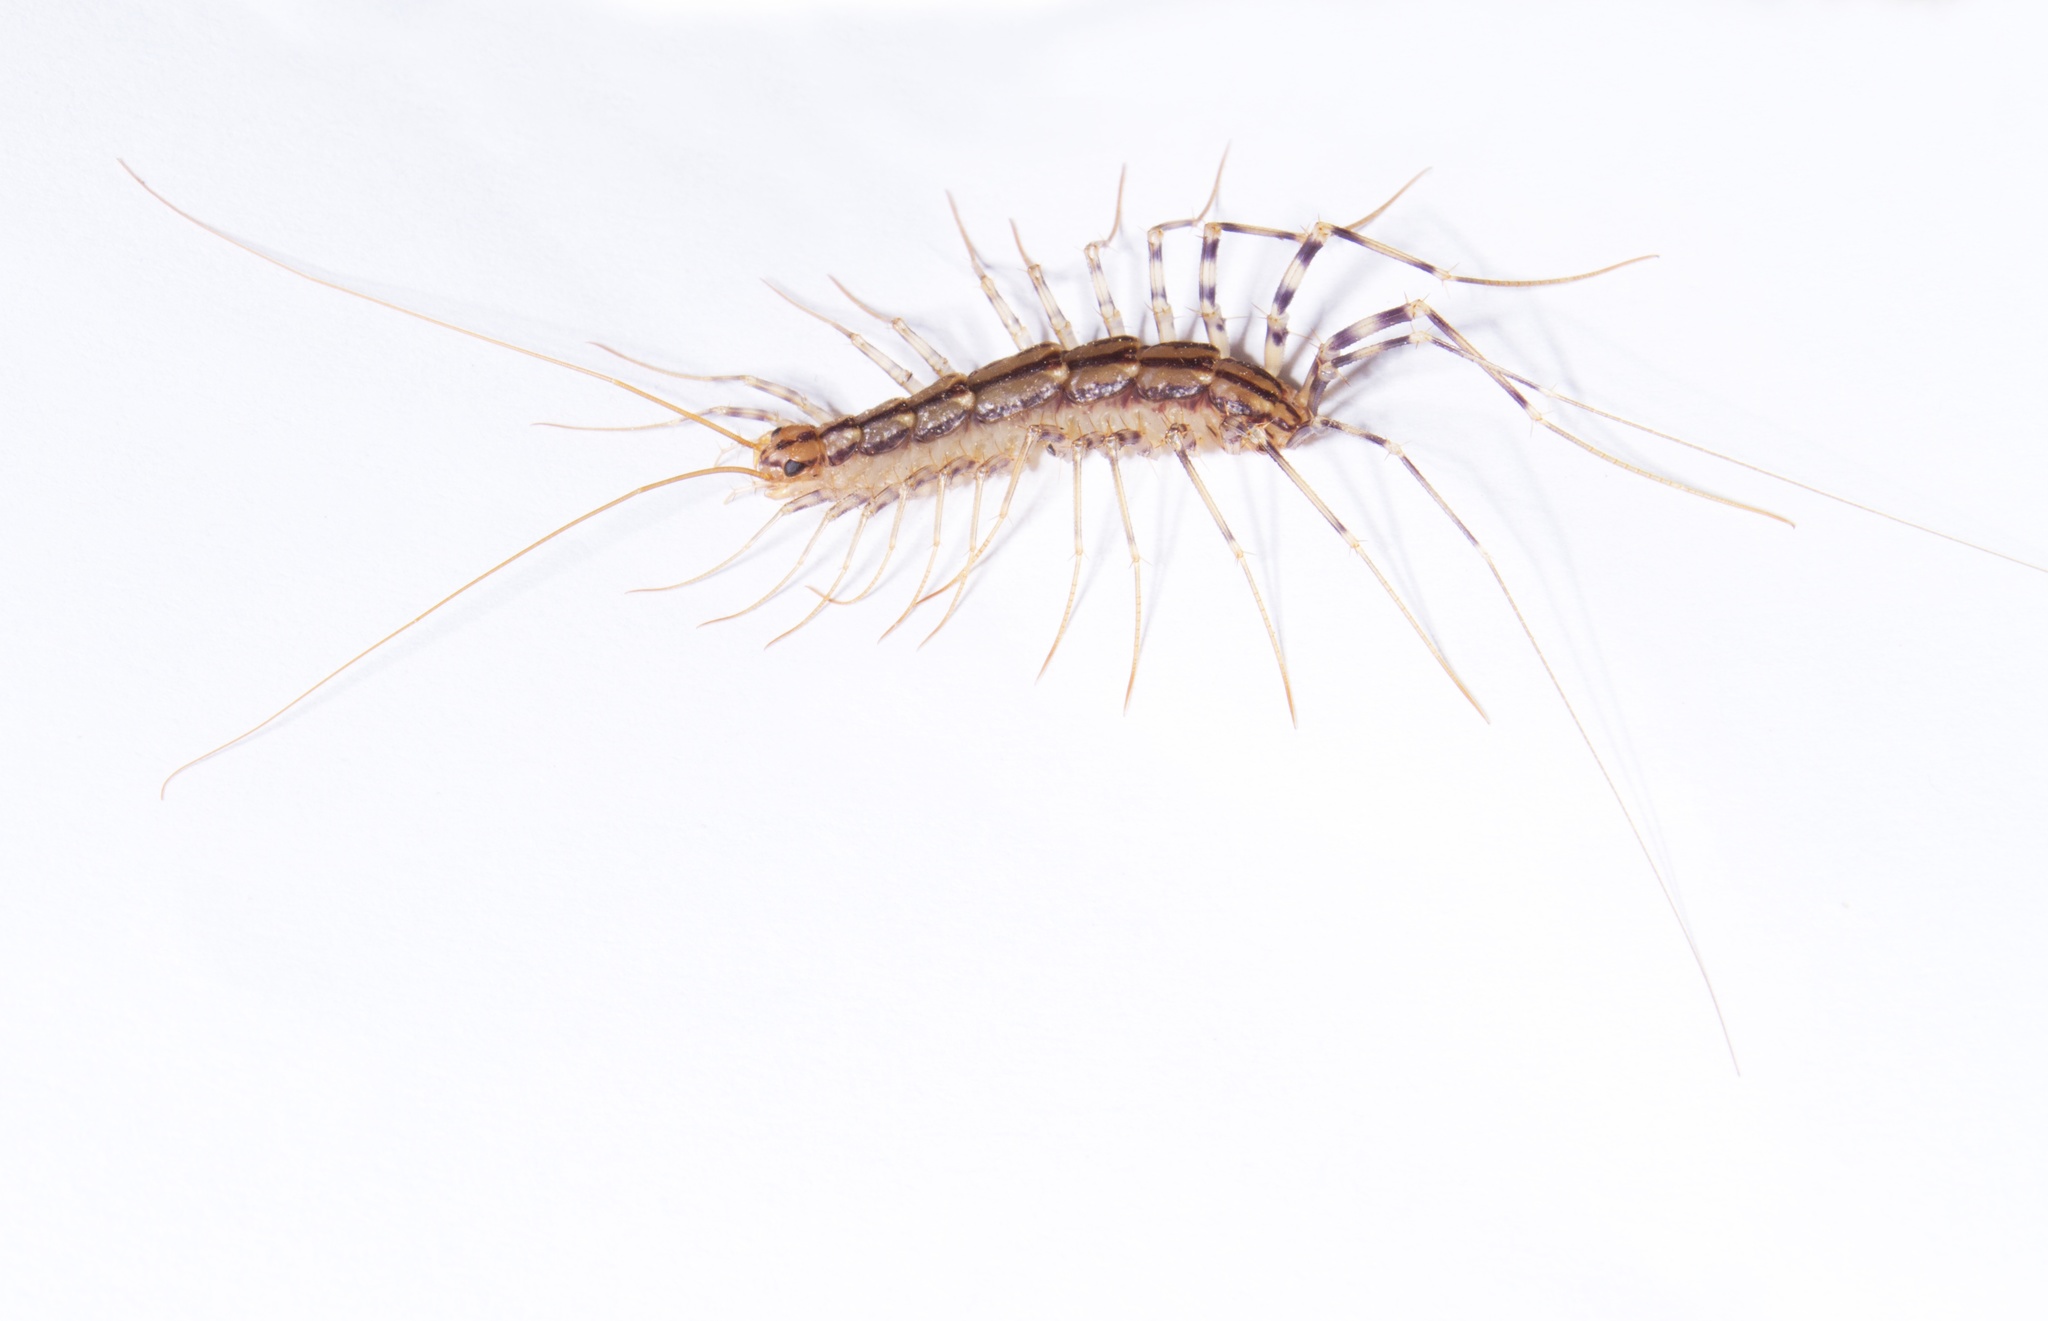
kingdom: Animalia
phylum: Arthropoda
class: Chilopoda
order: Scutigeromorpha
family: Scutigeridae
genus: Scutigera
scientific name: Scutigera coleoptrata
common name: House centipede
